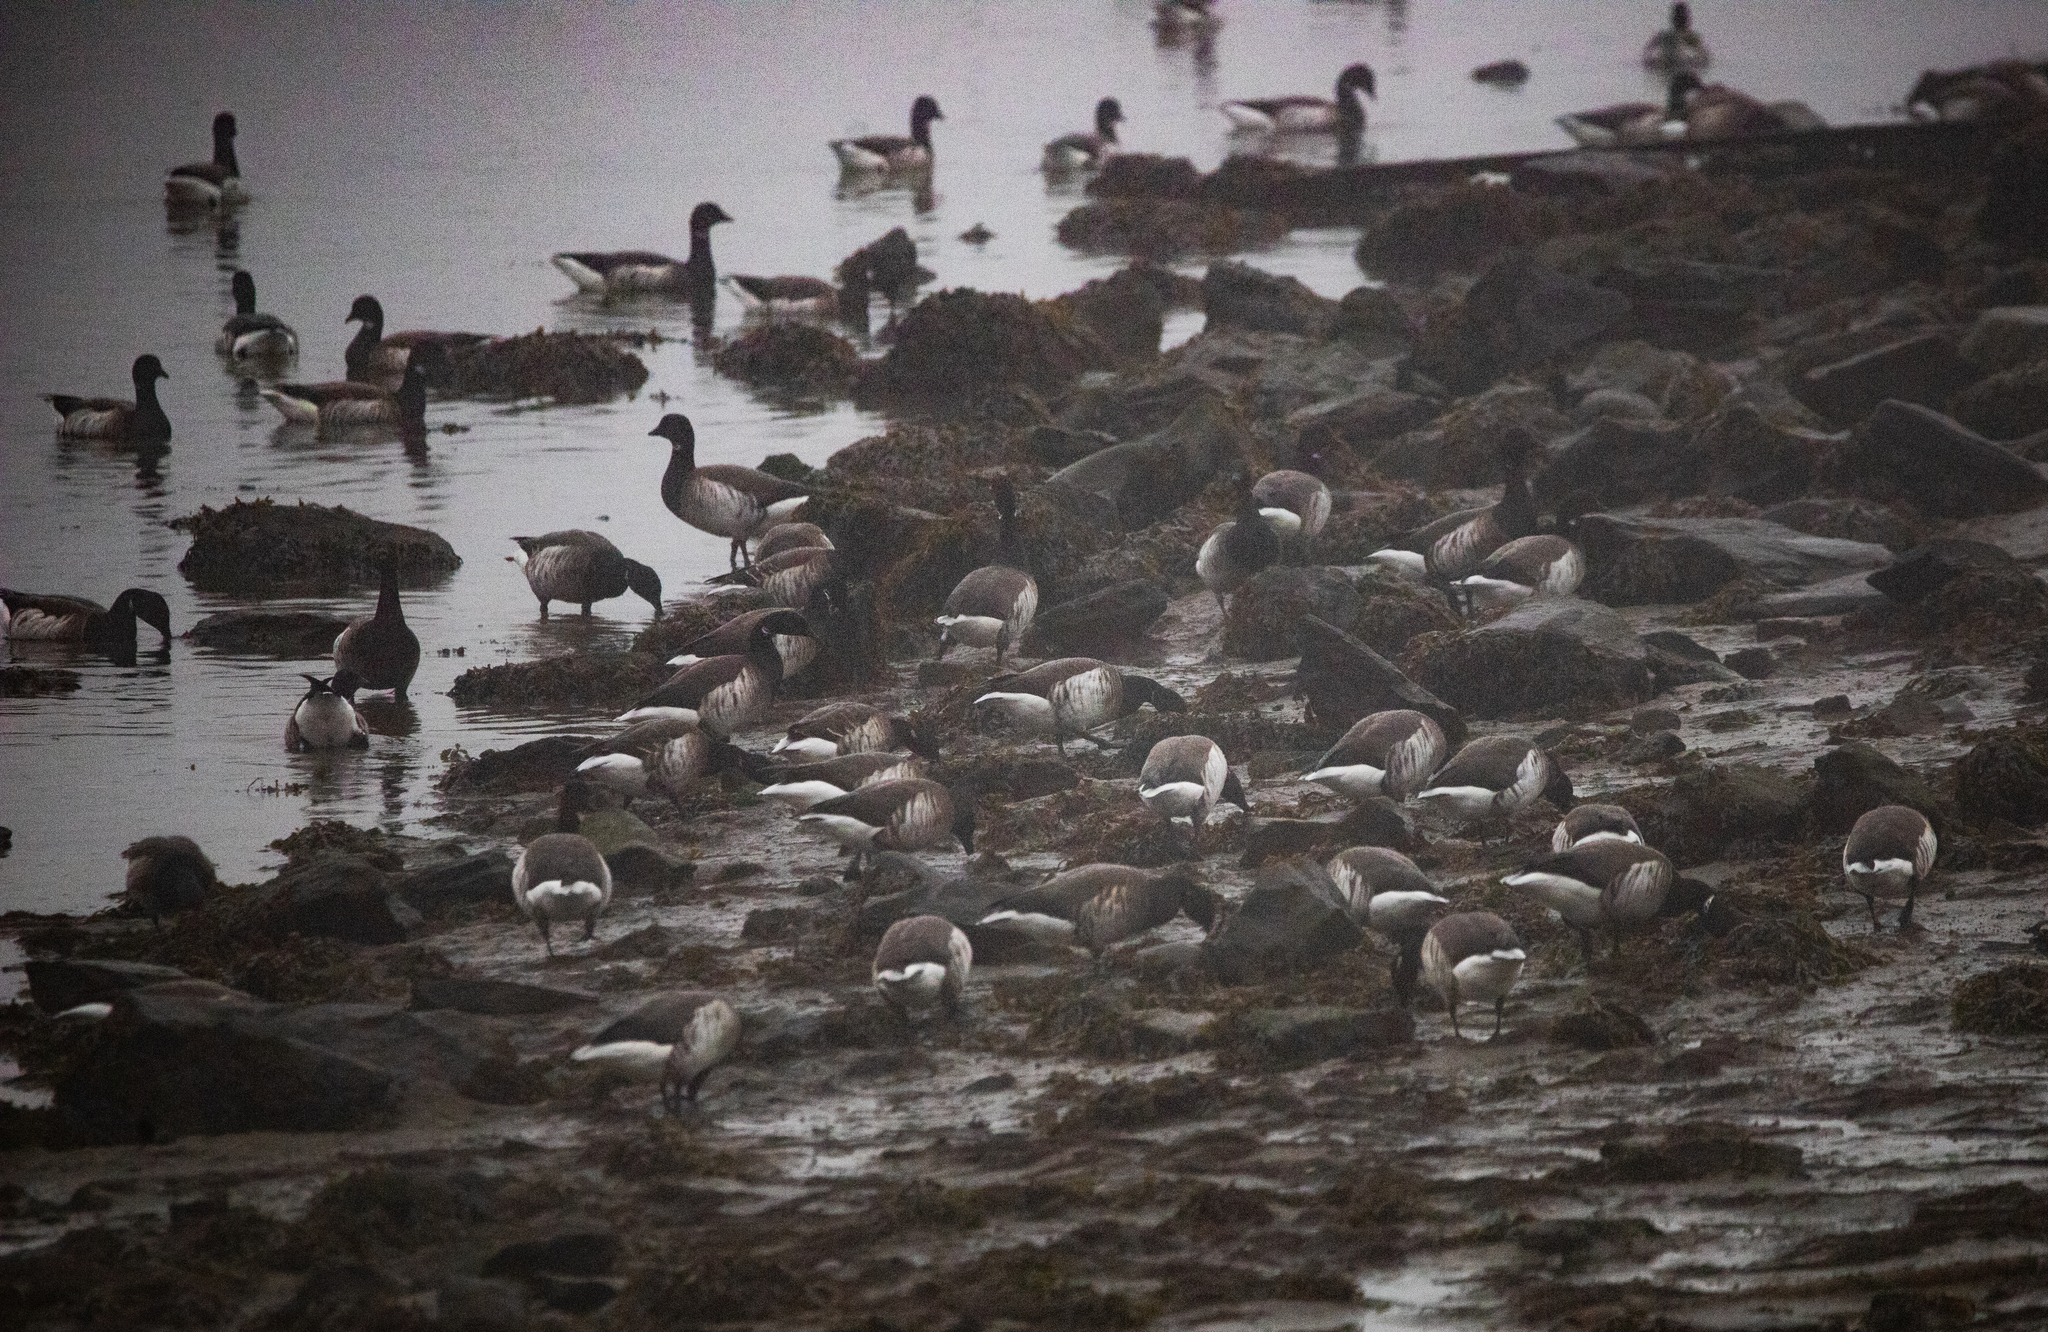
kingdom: Animalia
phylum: Chordata
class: Aves
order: Anseriformes
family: Anatidae
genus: Branta
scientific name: Branta bernicla
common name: Brant goose
